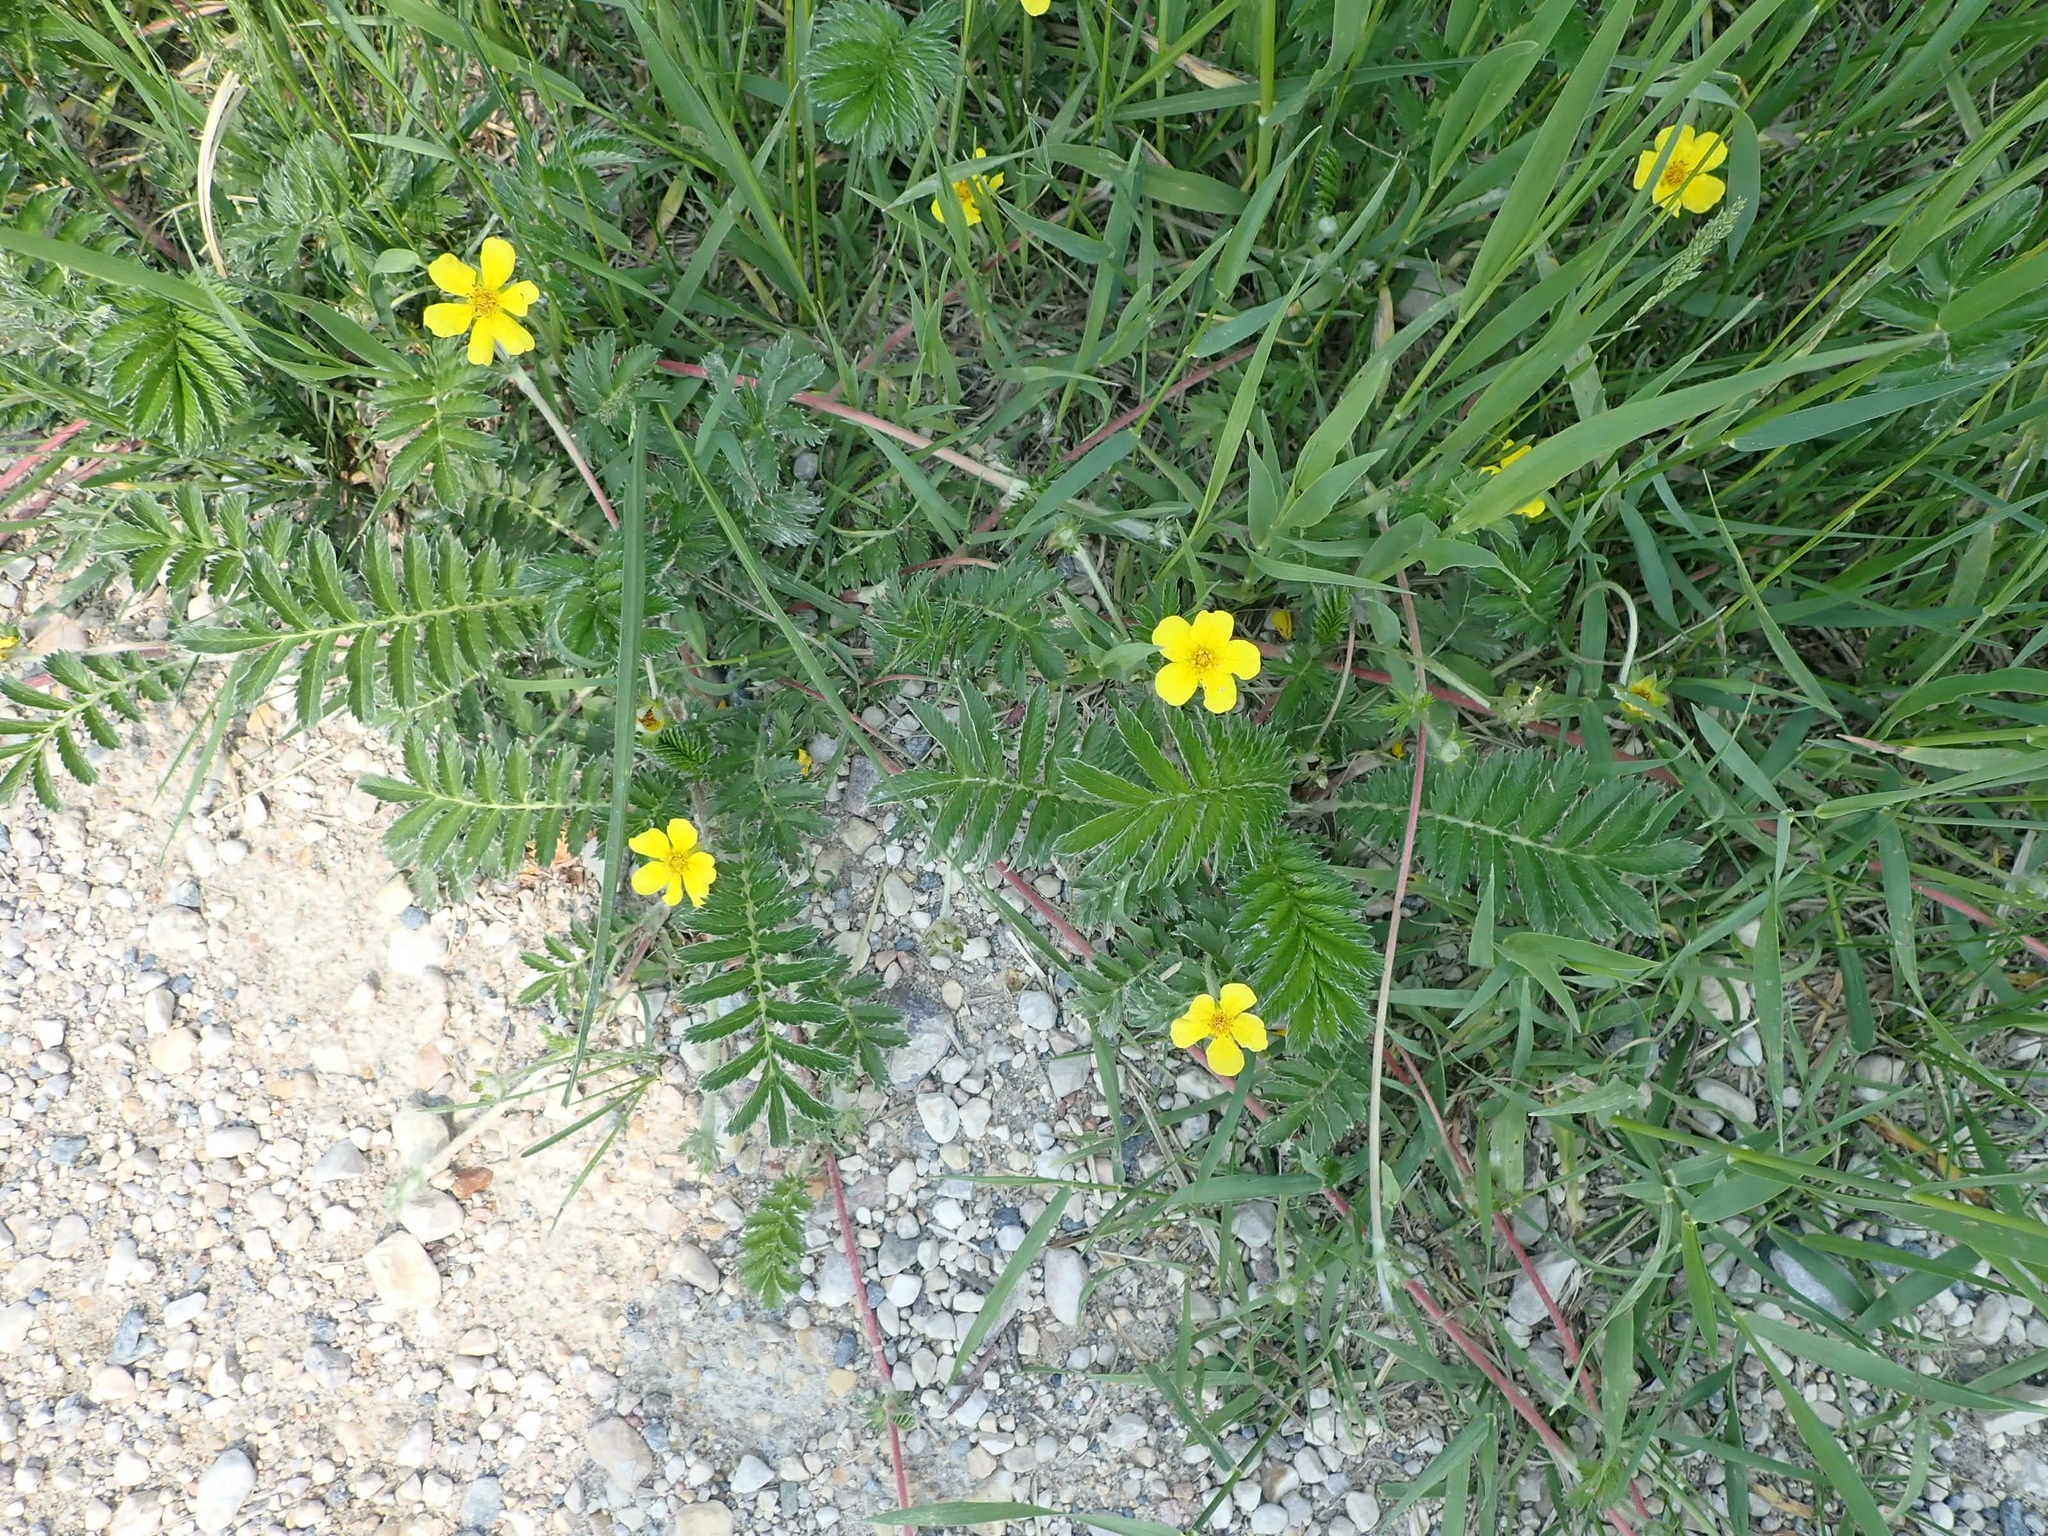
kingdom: Plantae
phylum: Tracheophyta
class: Magnoliopsida
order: Rosales
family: Rosaceae
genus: Argentina
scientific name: Argentina anserina
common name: Common silverweed
